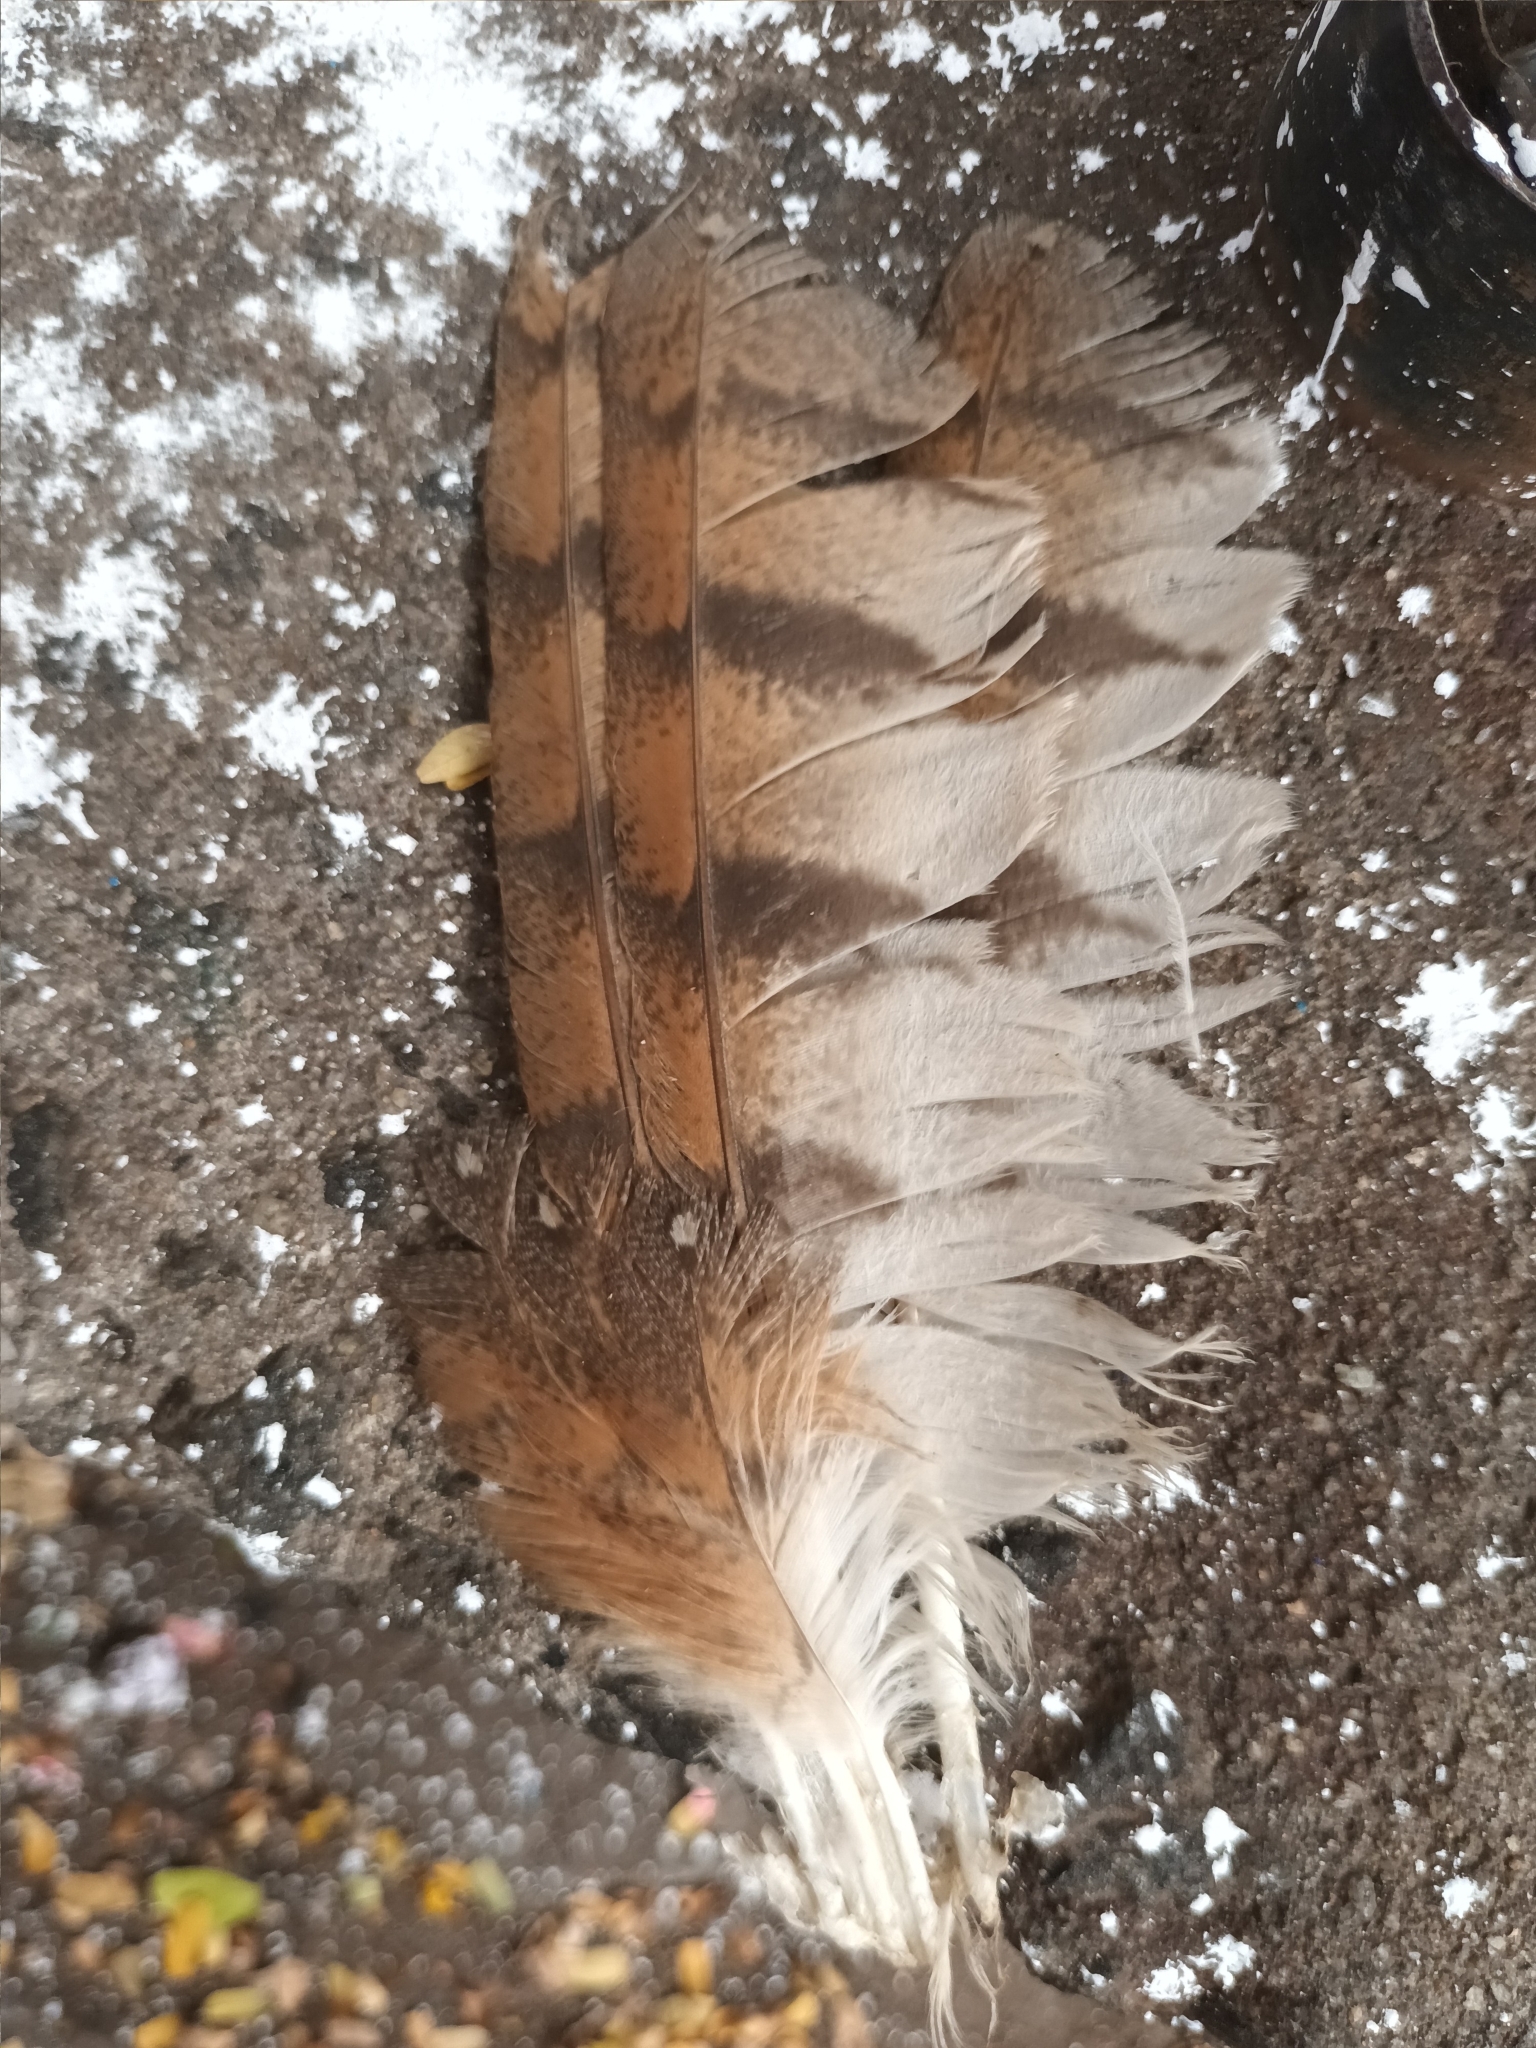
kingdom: Animalia
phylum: Chordata
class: Aves
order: Strigiformes
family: Tytonidae
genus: Tyto
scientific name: Tyto alba
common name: Barn owl
